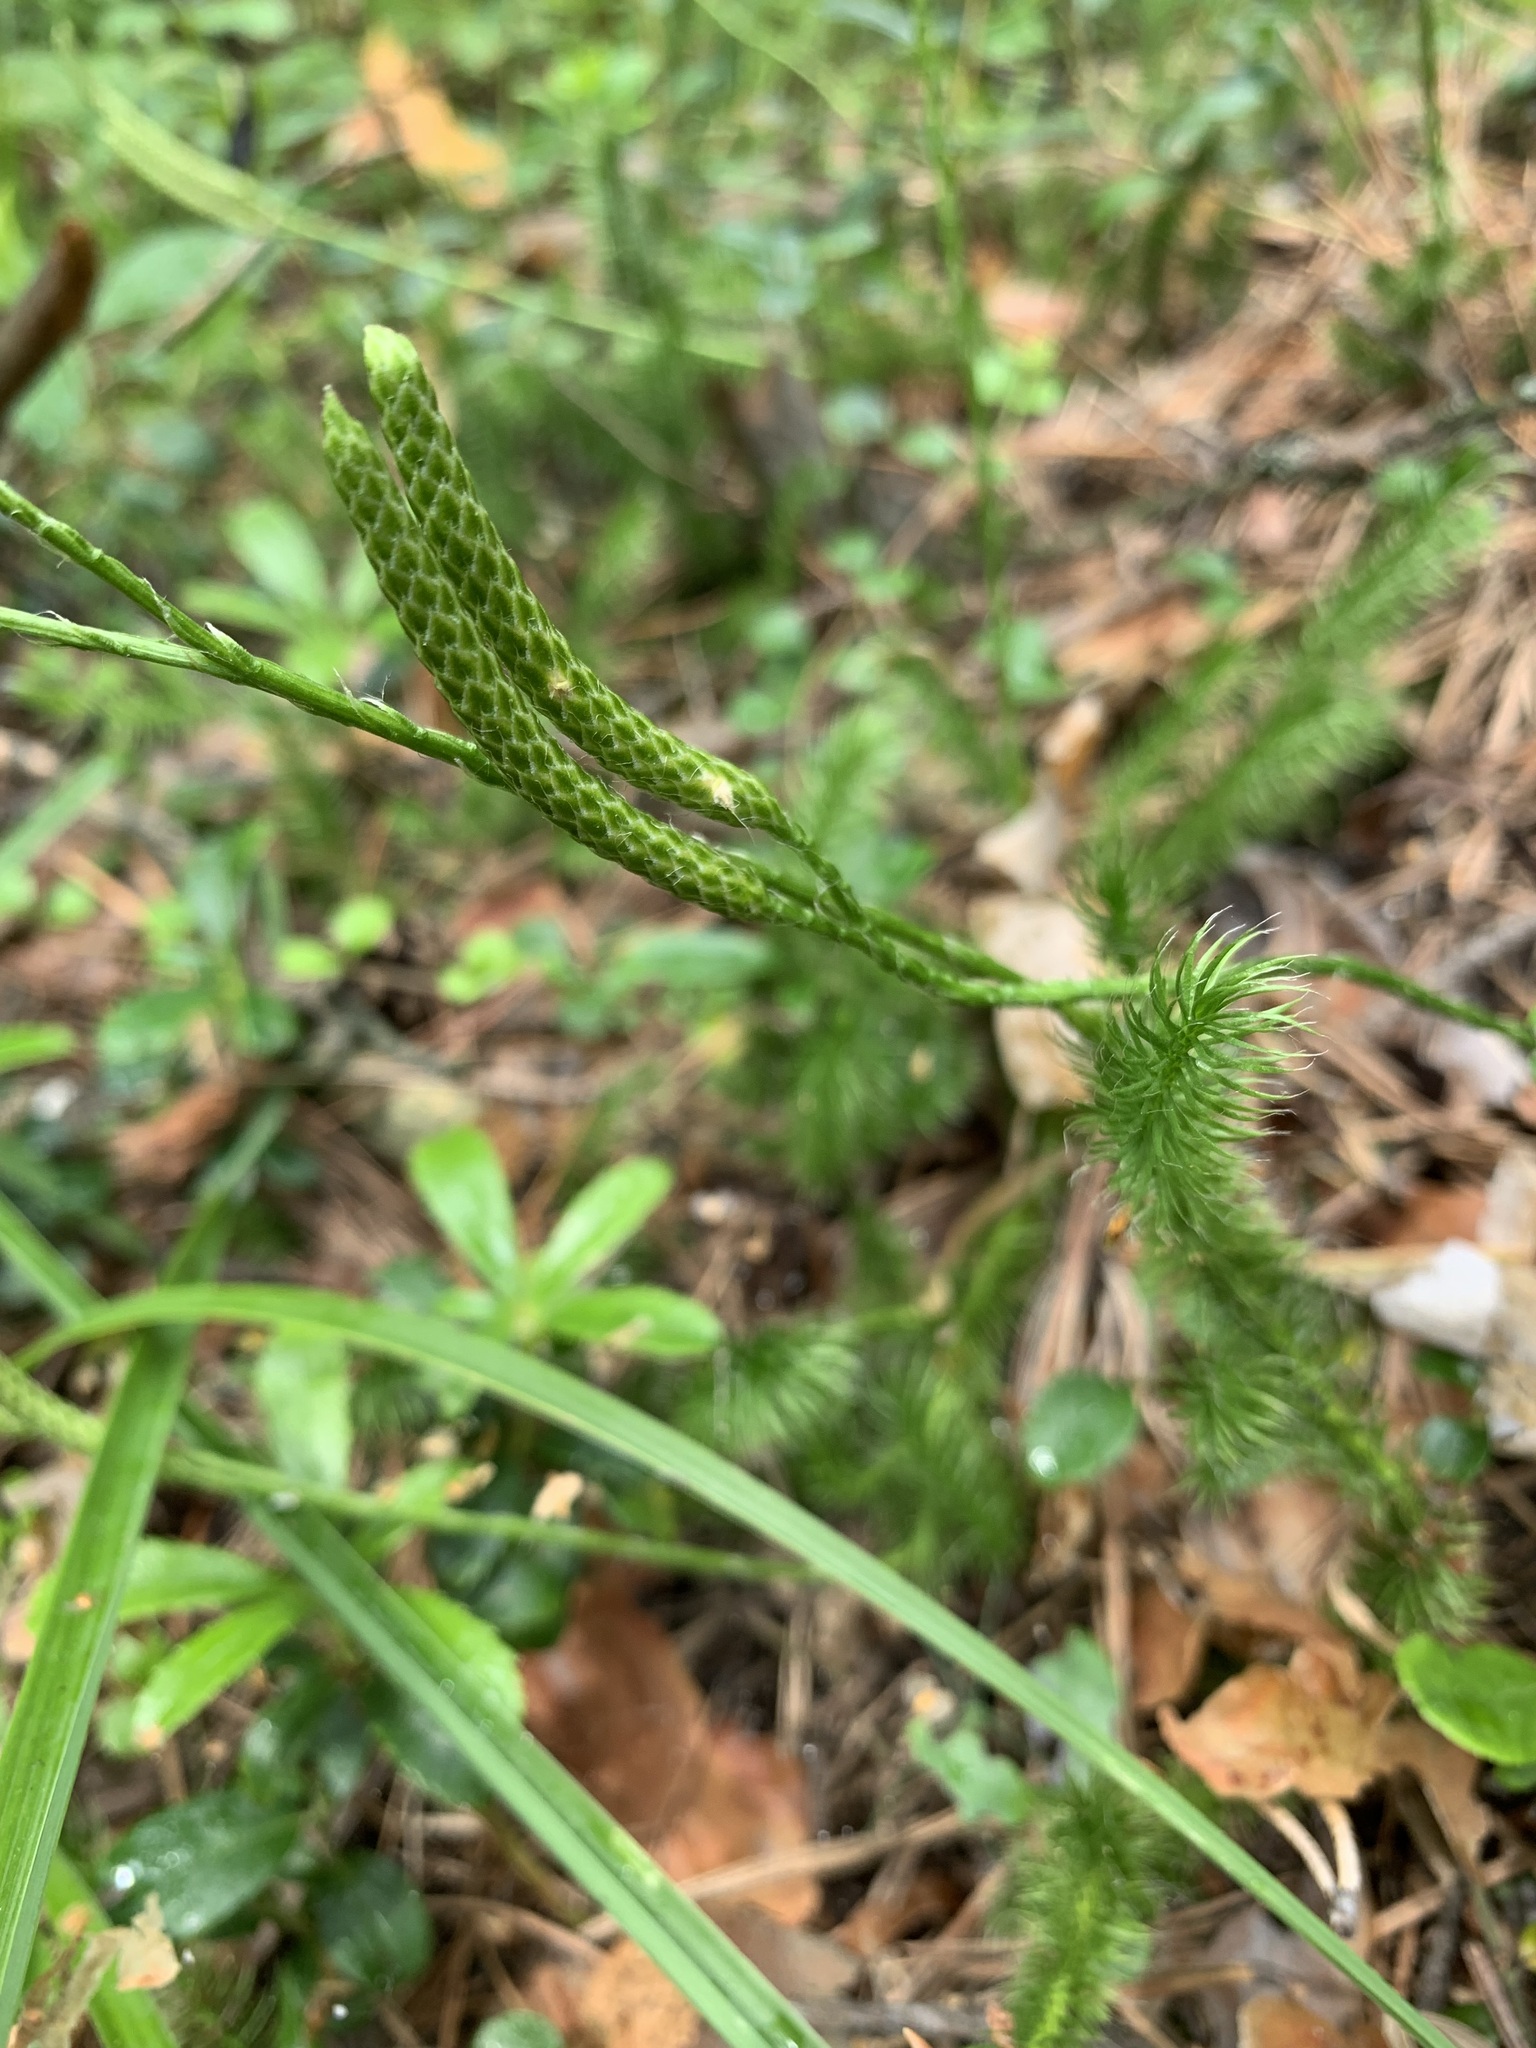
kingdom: Plantae
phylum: Tracheophyta
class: Lycopodiopsida
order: Lycopodiales
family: Lycopodiaceae
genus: Lycopodium
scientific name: Lycopodium clavatum
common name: Stag's-horn clubmoss
